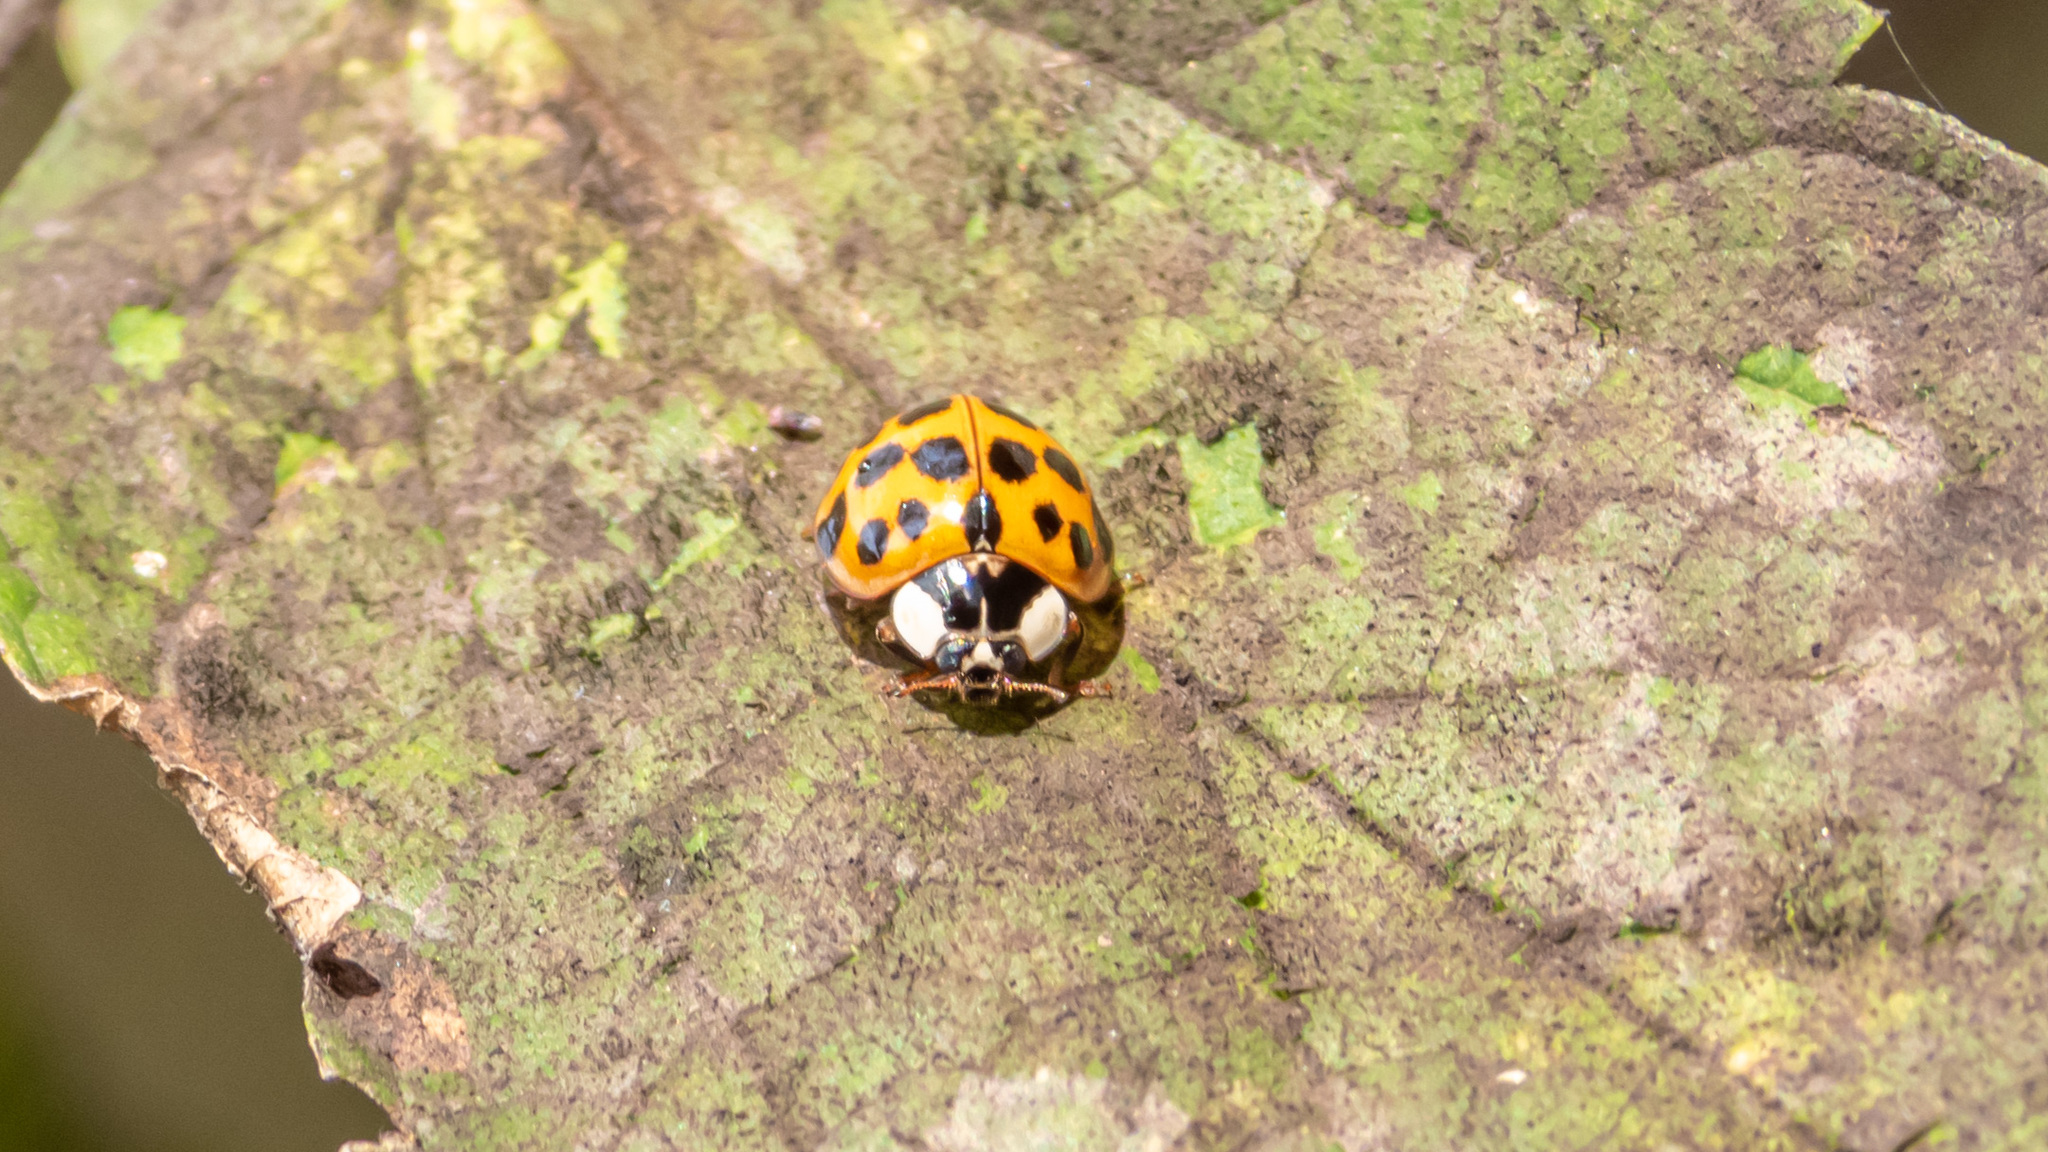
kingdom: Animalia
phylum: Arthropoda
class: Insecta
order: Coleoptera
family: Coccinellidae
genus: Harmonia
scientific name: Harmonia axyridis
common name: Harlequin ladybird
